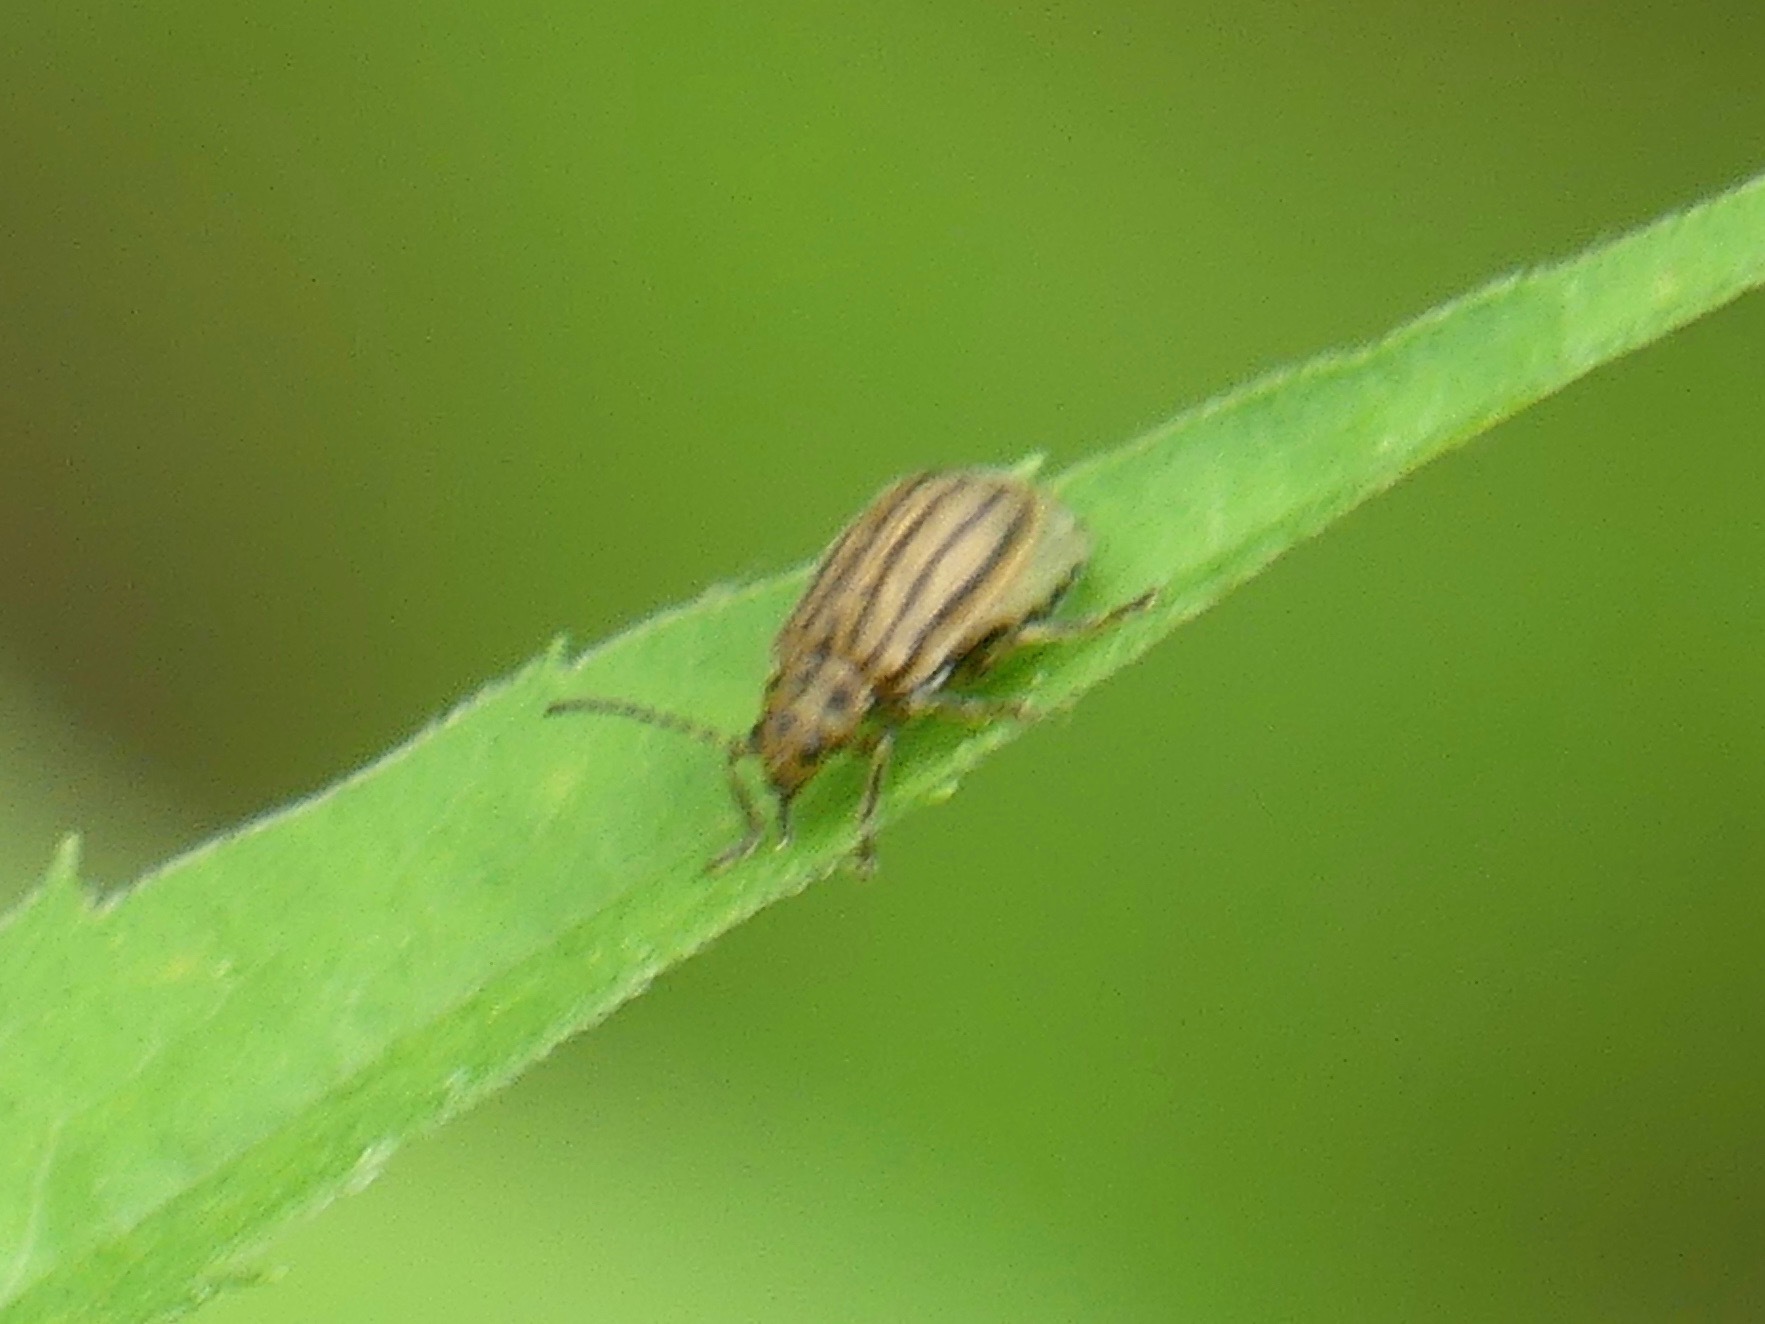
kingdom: Animalia
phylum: Arthropoda
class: Insecta
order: Coleoptera
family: Chrysomelidae
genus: Ophraella
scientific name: Ophraella conferta
